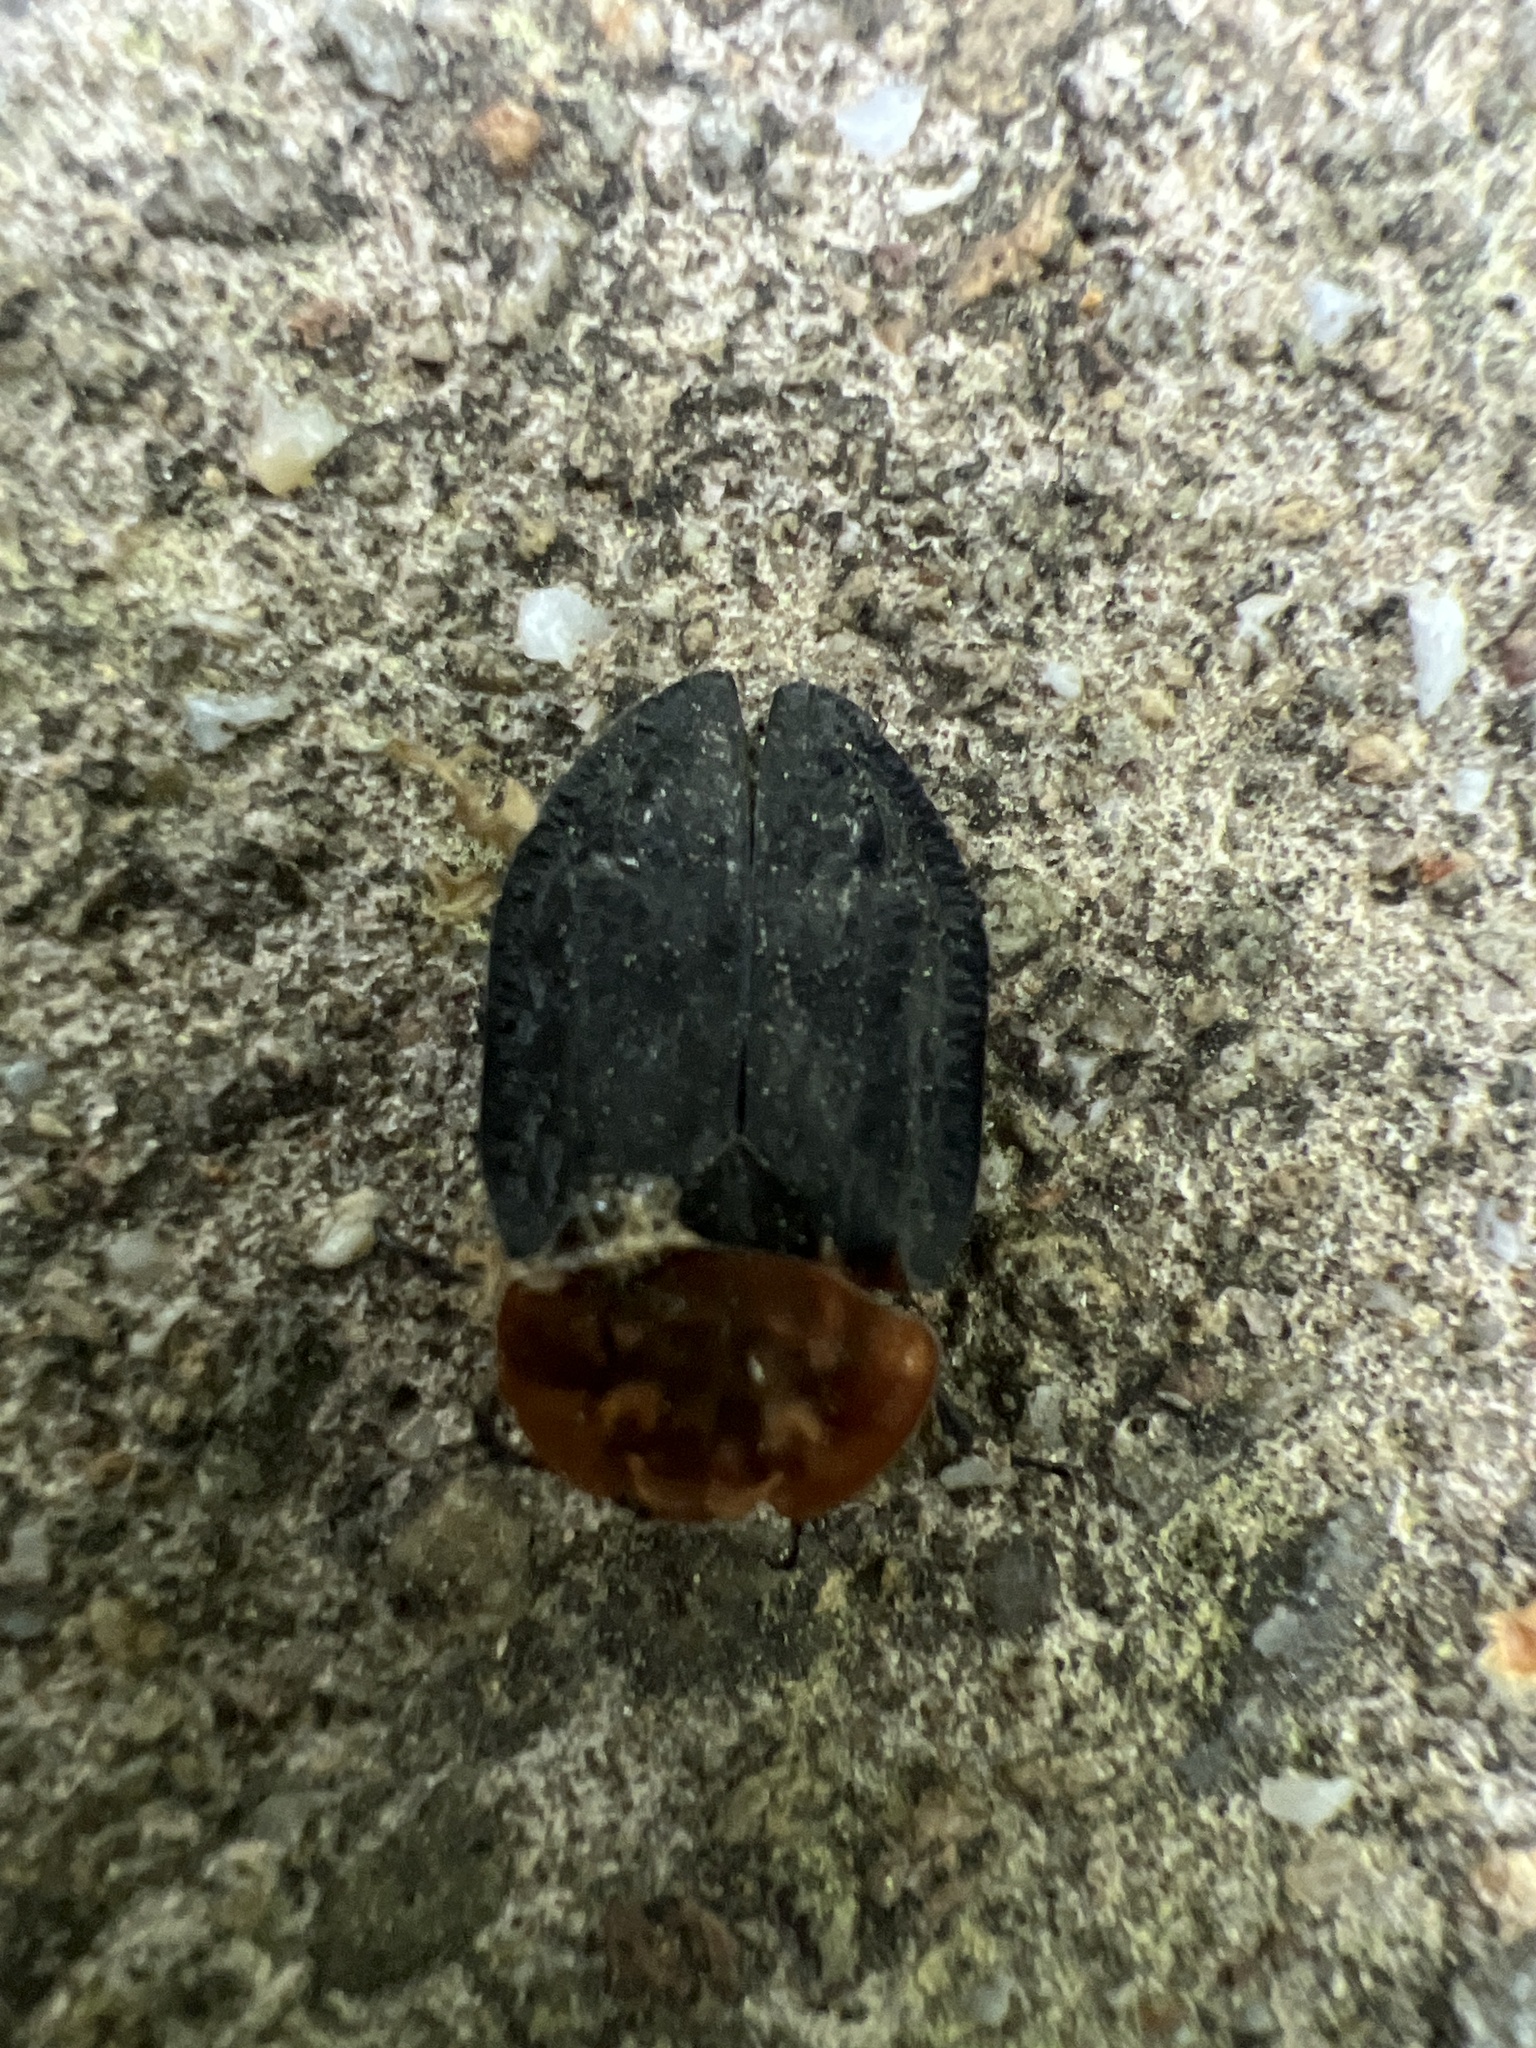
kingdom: Animalia
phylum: Arthropoda
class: Insecta
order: Coleoptera
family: Staphylinidae
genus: Oiceoptoma
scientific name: Oiceoptoma thoracicum
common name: Red-breasted carrion beetle
